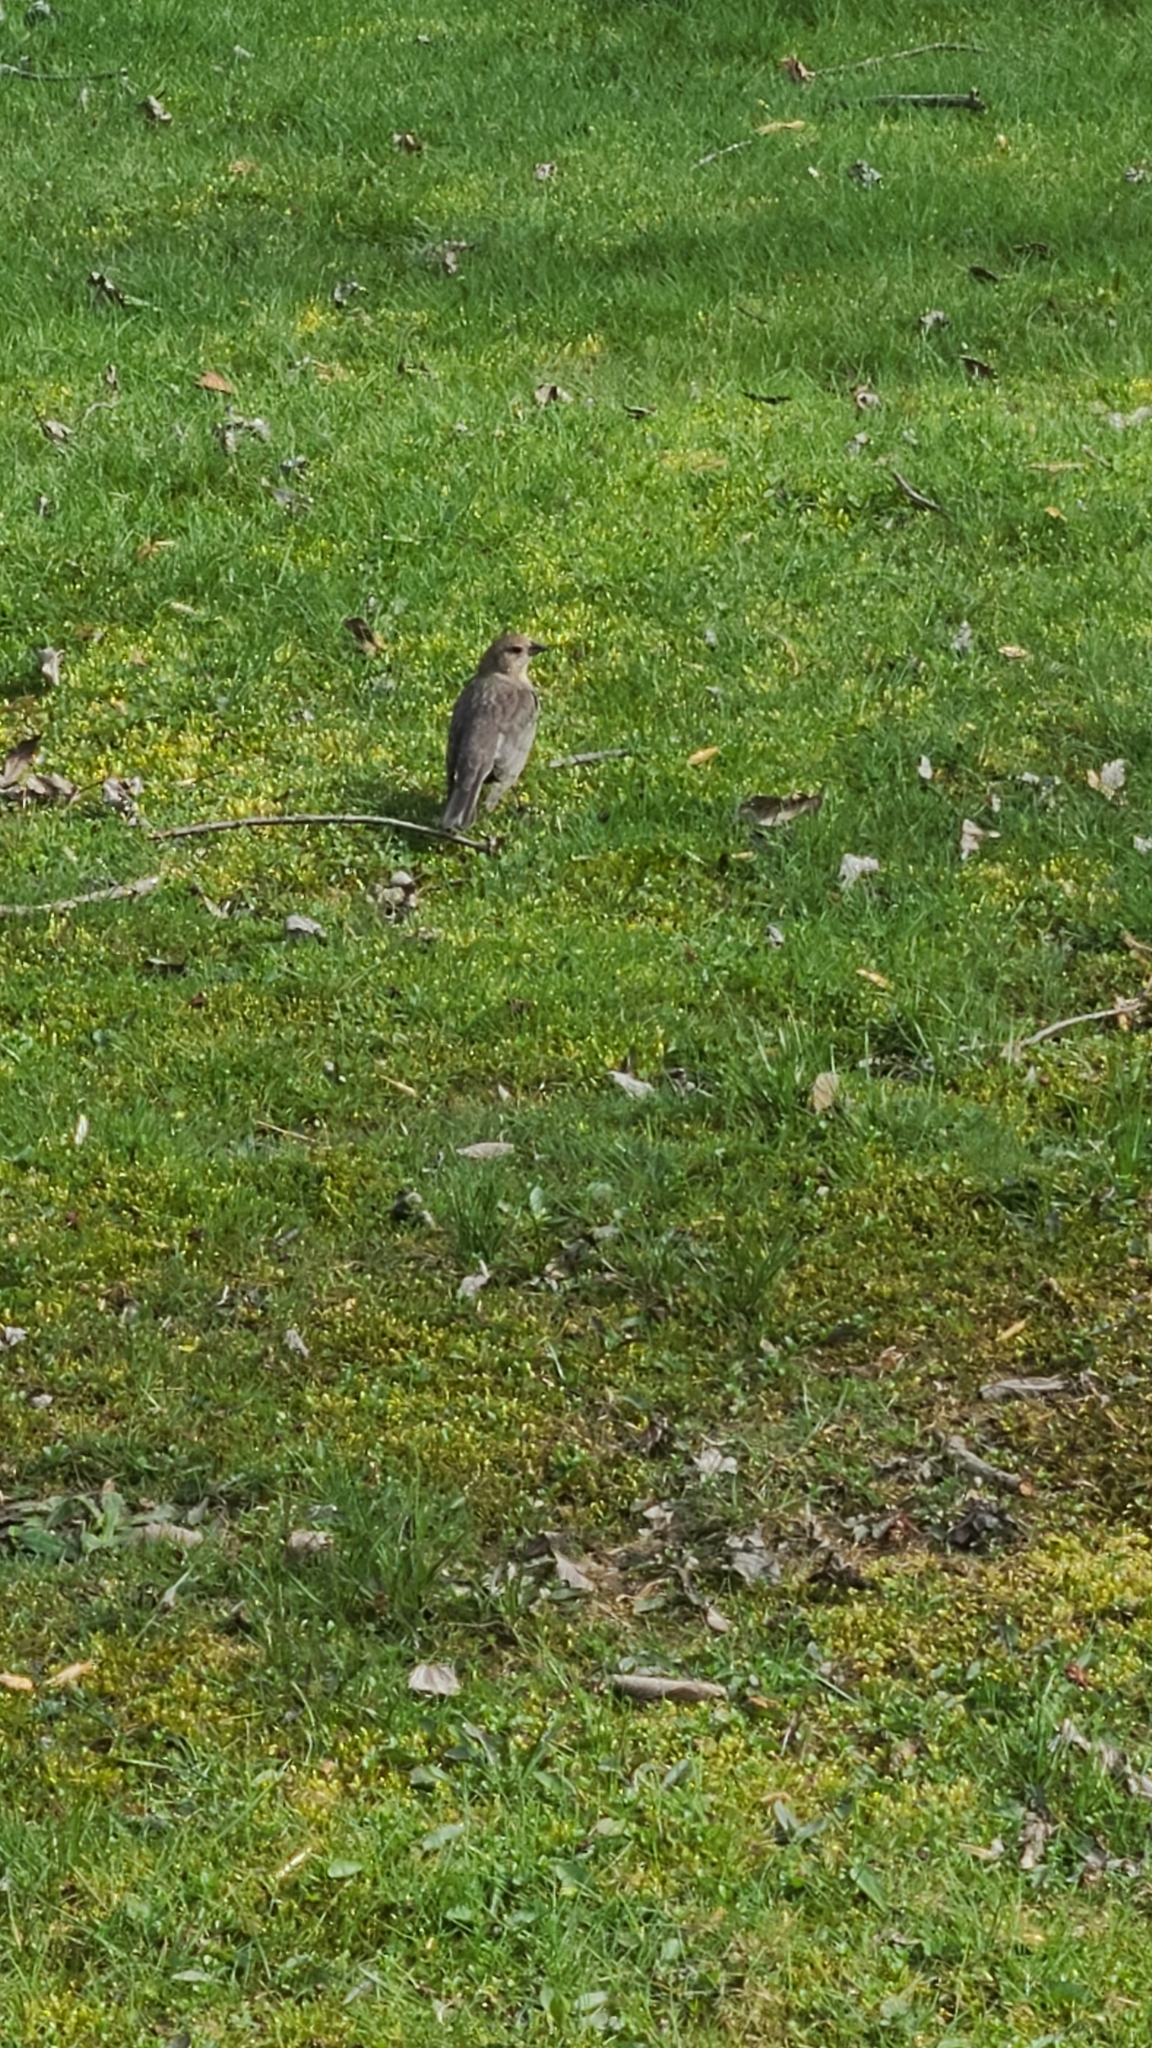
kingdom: Animalia
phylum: Chordata
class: Aves
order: Passeriformes
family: Icteridae
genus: Molothrus
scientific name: Molothrus ater
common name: Brown-headed cowbird
